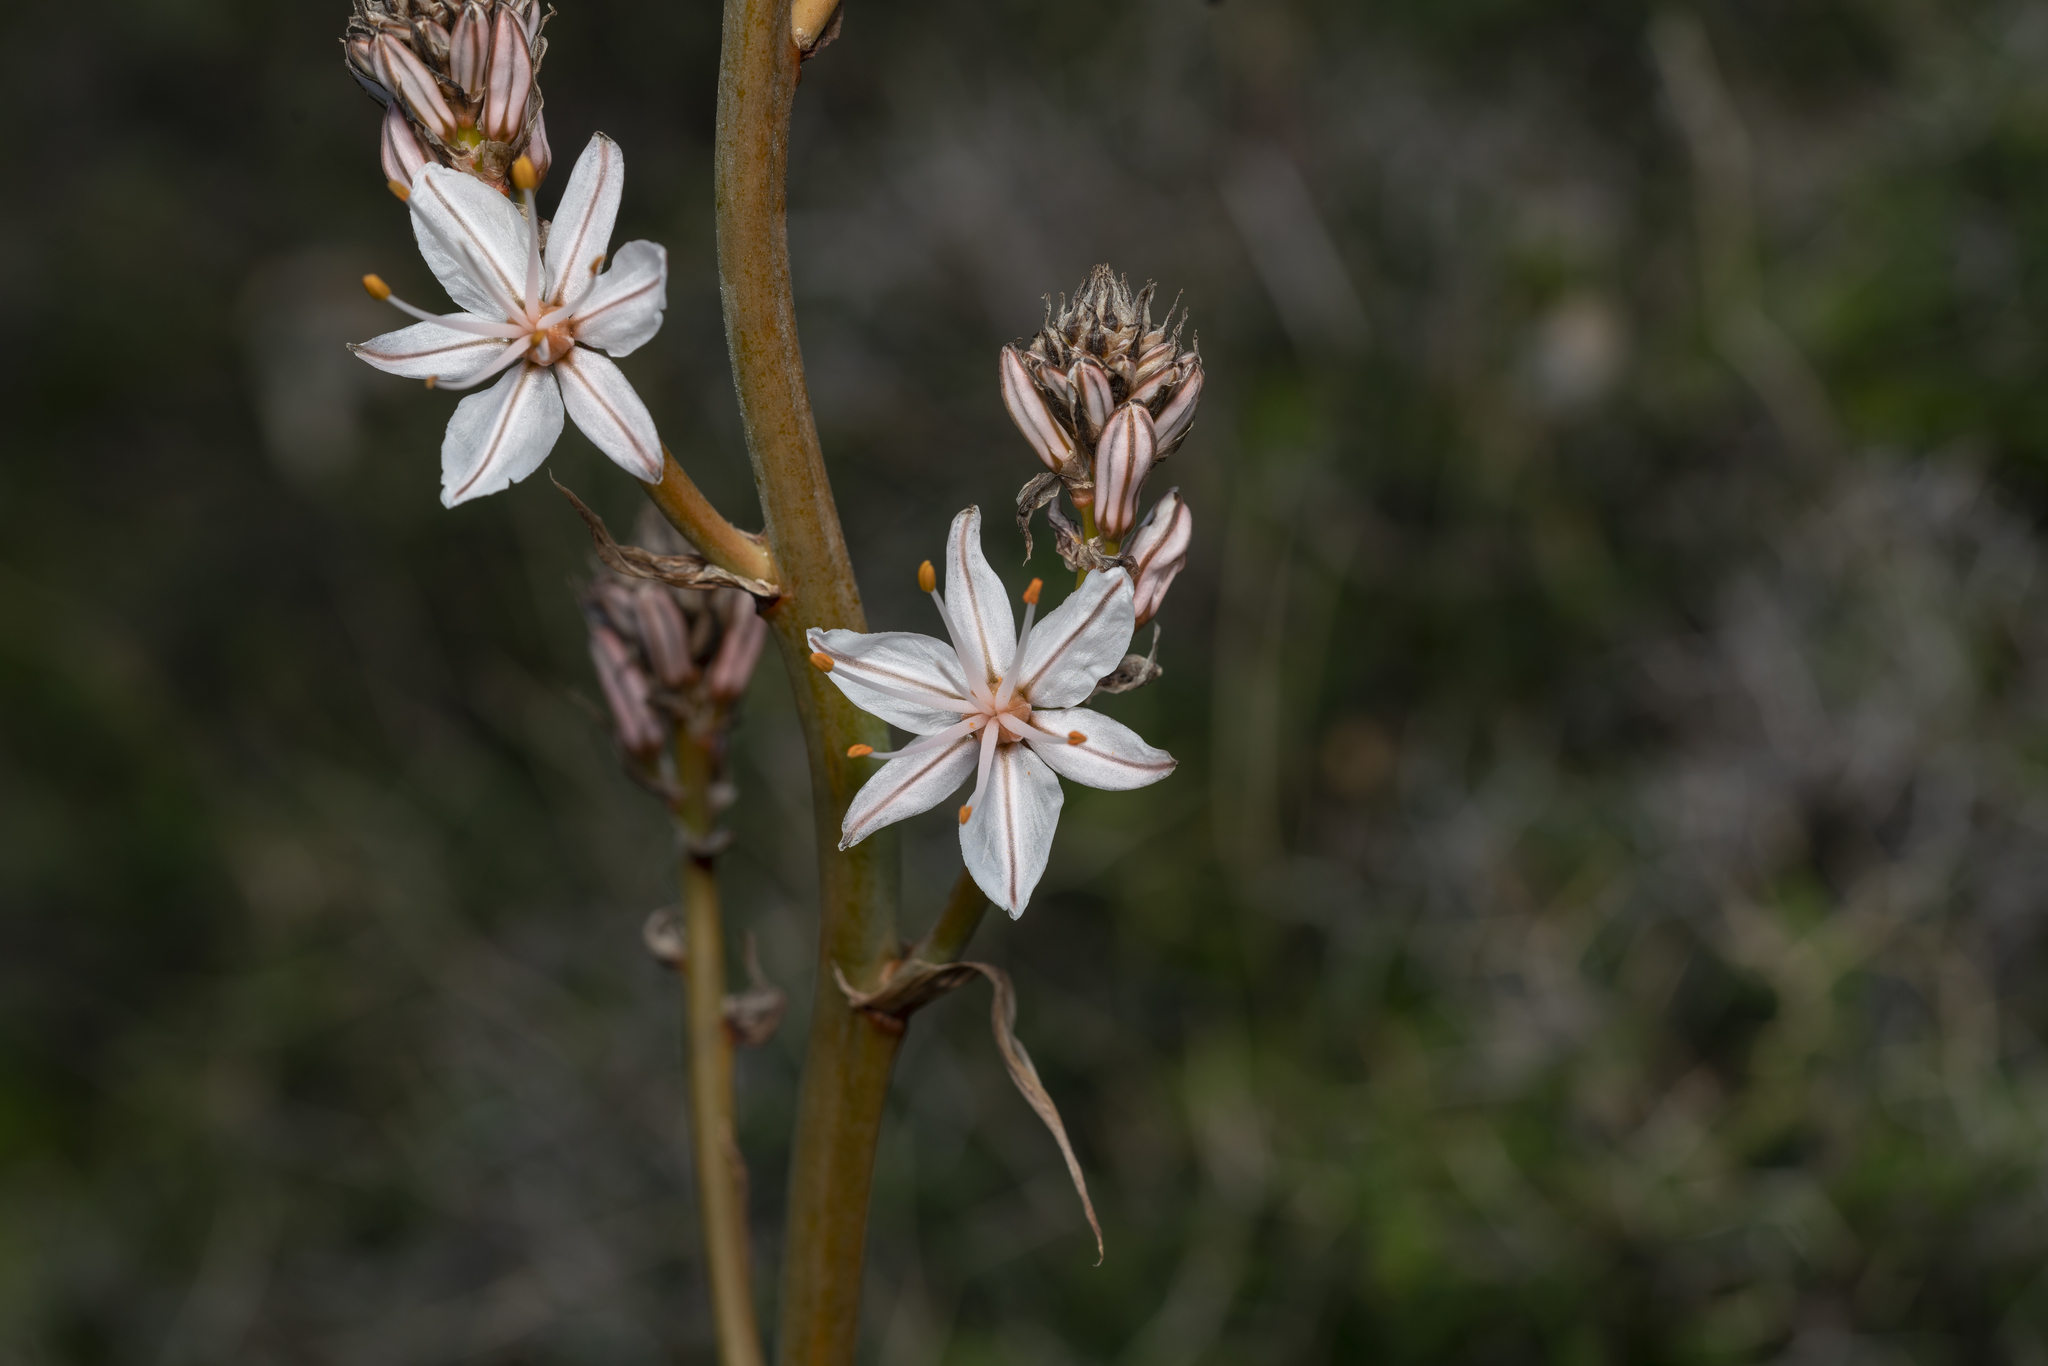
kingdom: Plantae
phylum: Tracheophyta
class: Liliopsida
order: Asparagales
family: Asphodelaceae
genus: Asphodelus
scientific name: Asphodelus ramosus
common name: Silverrod
